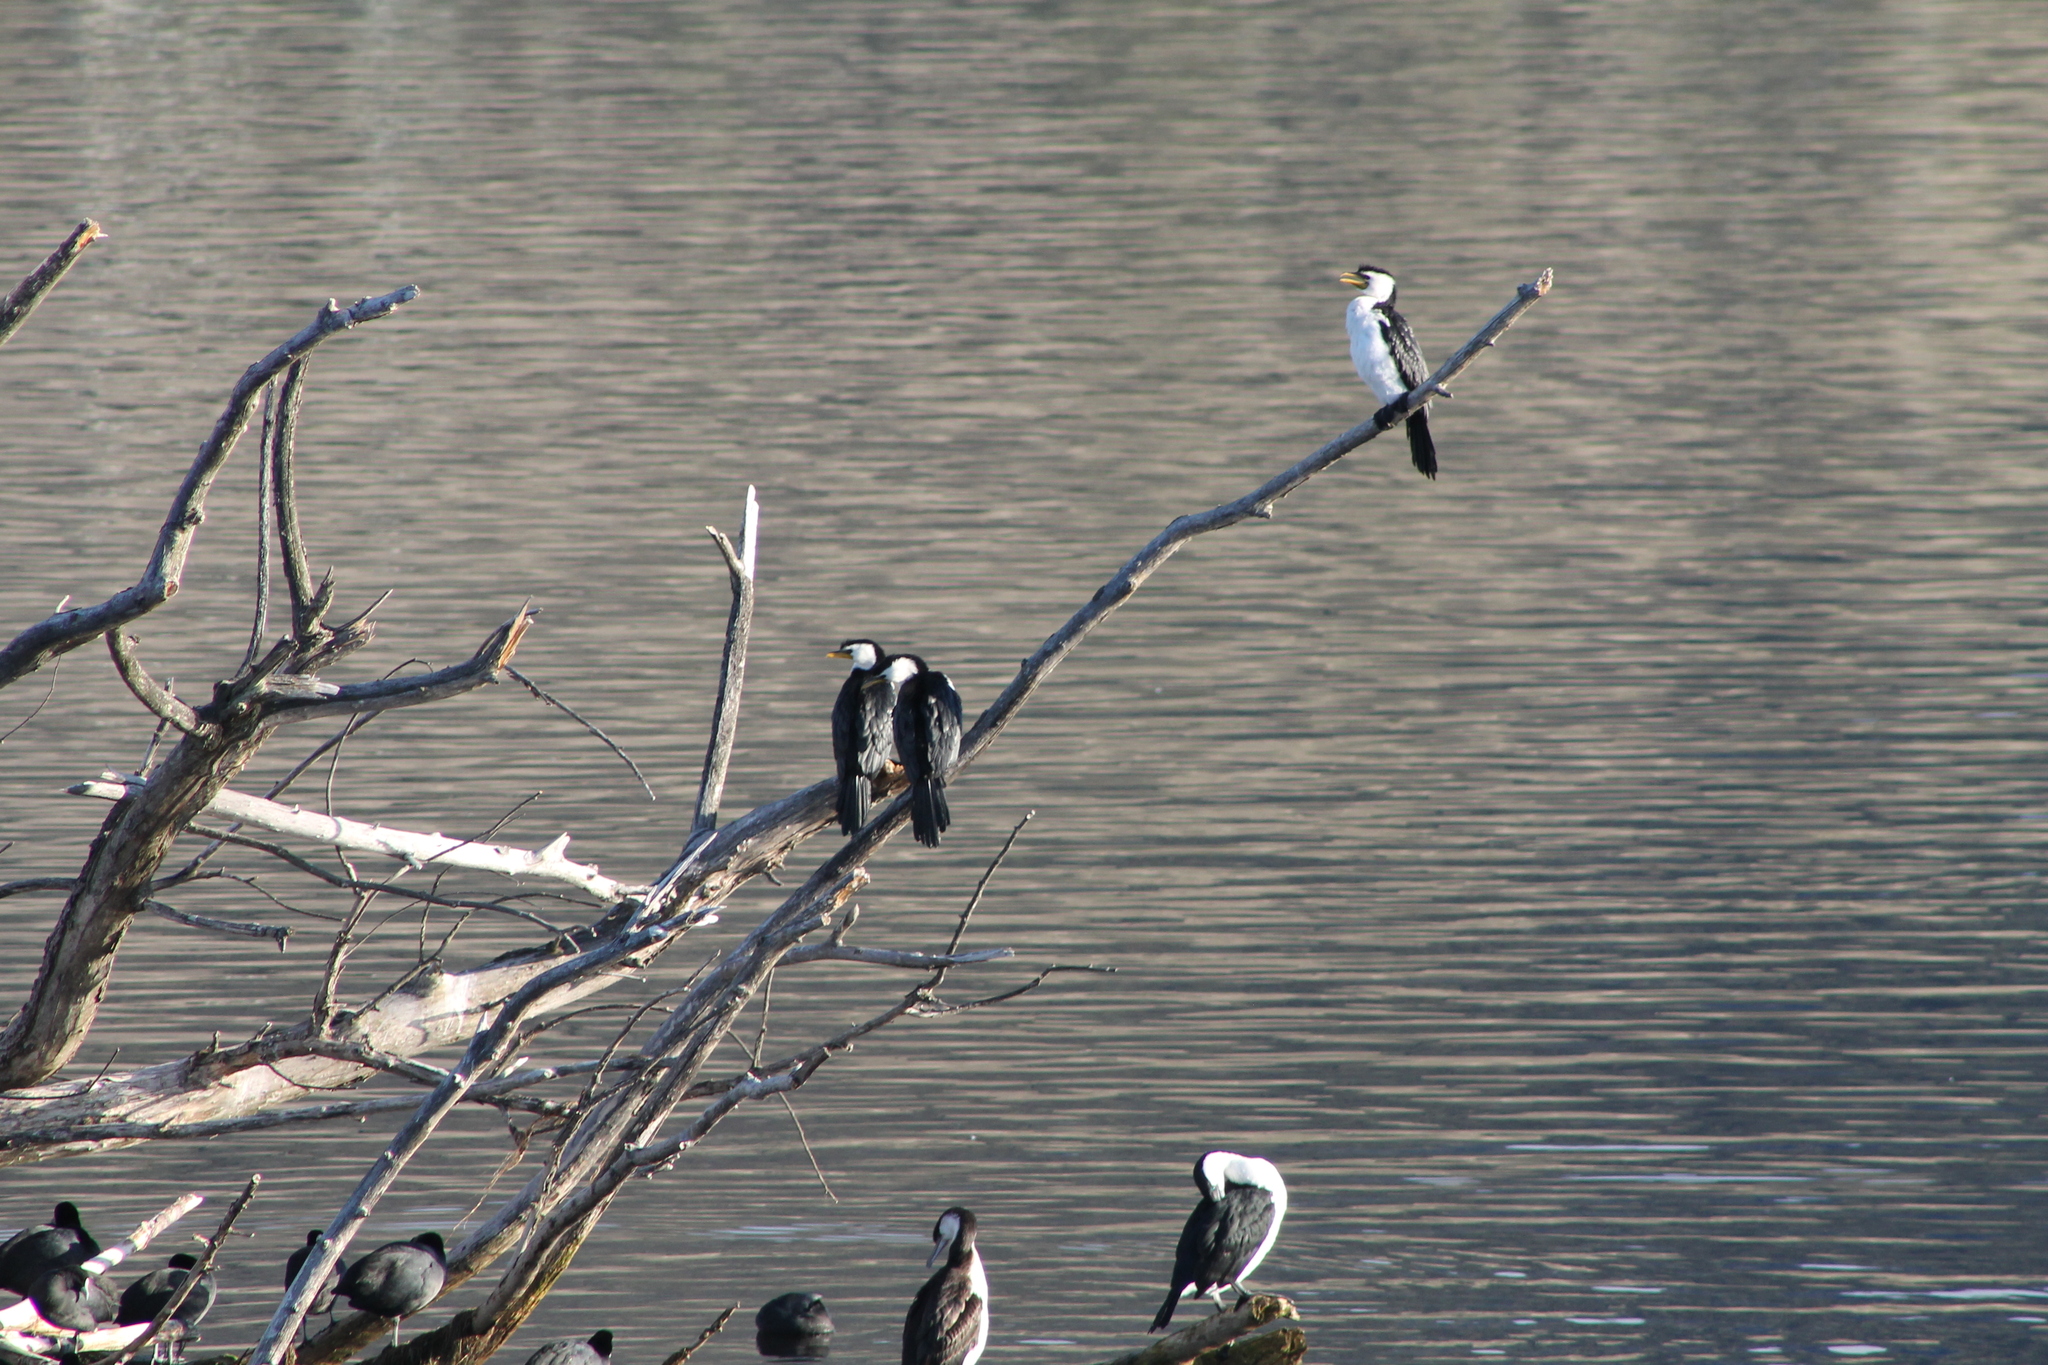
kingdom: Animalia
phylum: Chordata
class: Aves
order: Suliformes
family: Phalacrocoracidae
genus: Microcarbo
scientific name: Microcarbo melanoleucos
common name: Little pied cormorant
